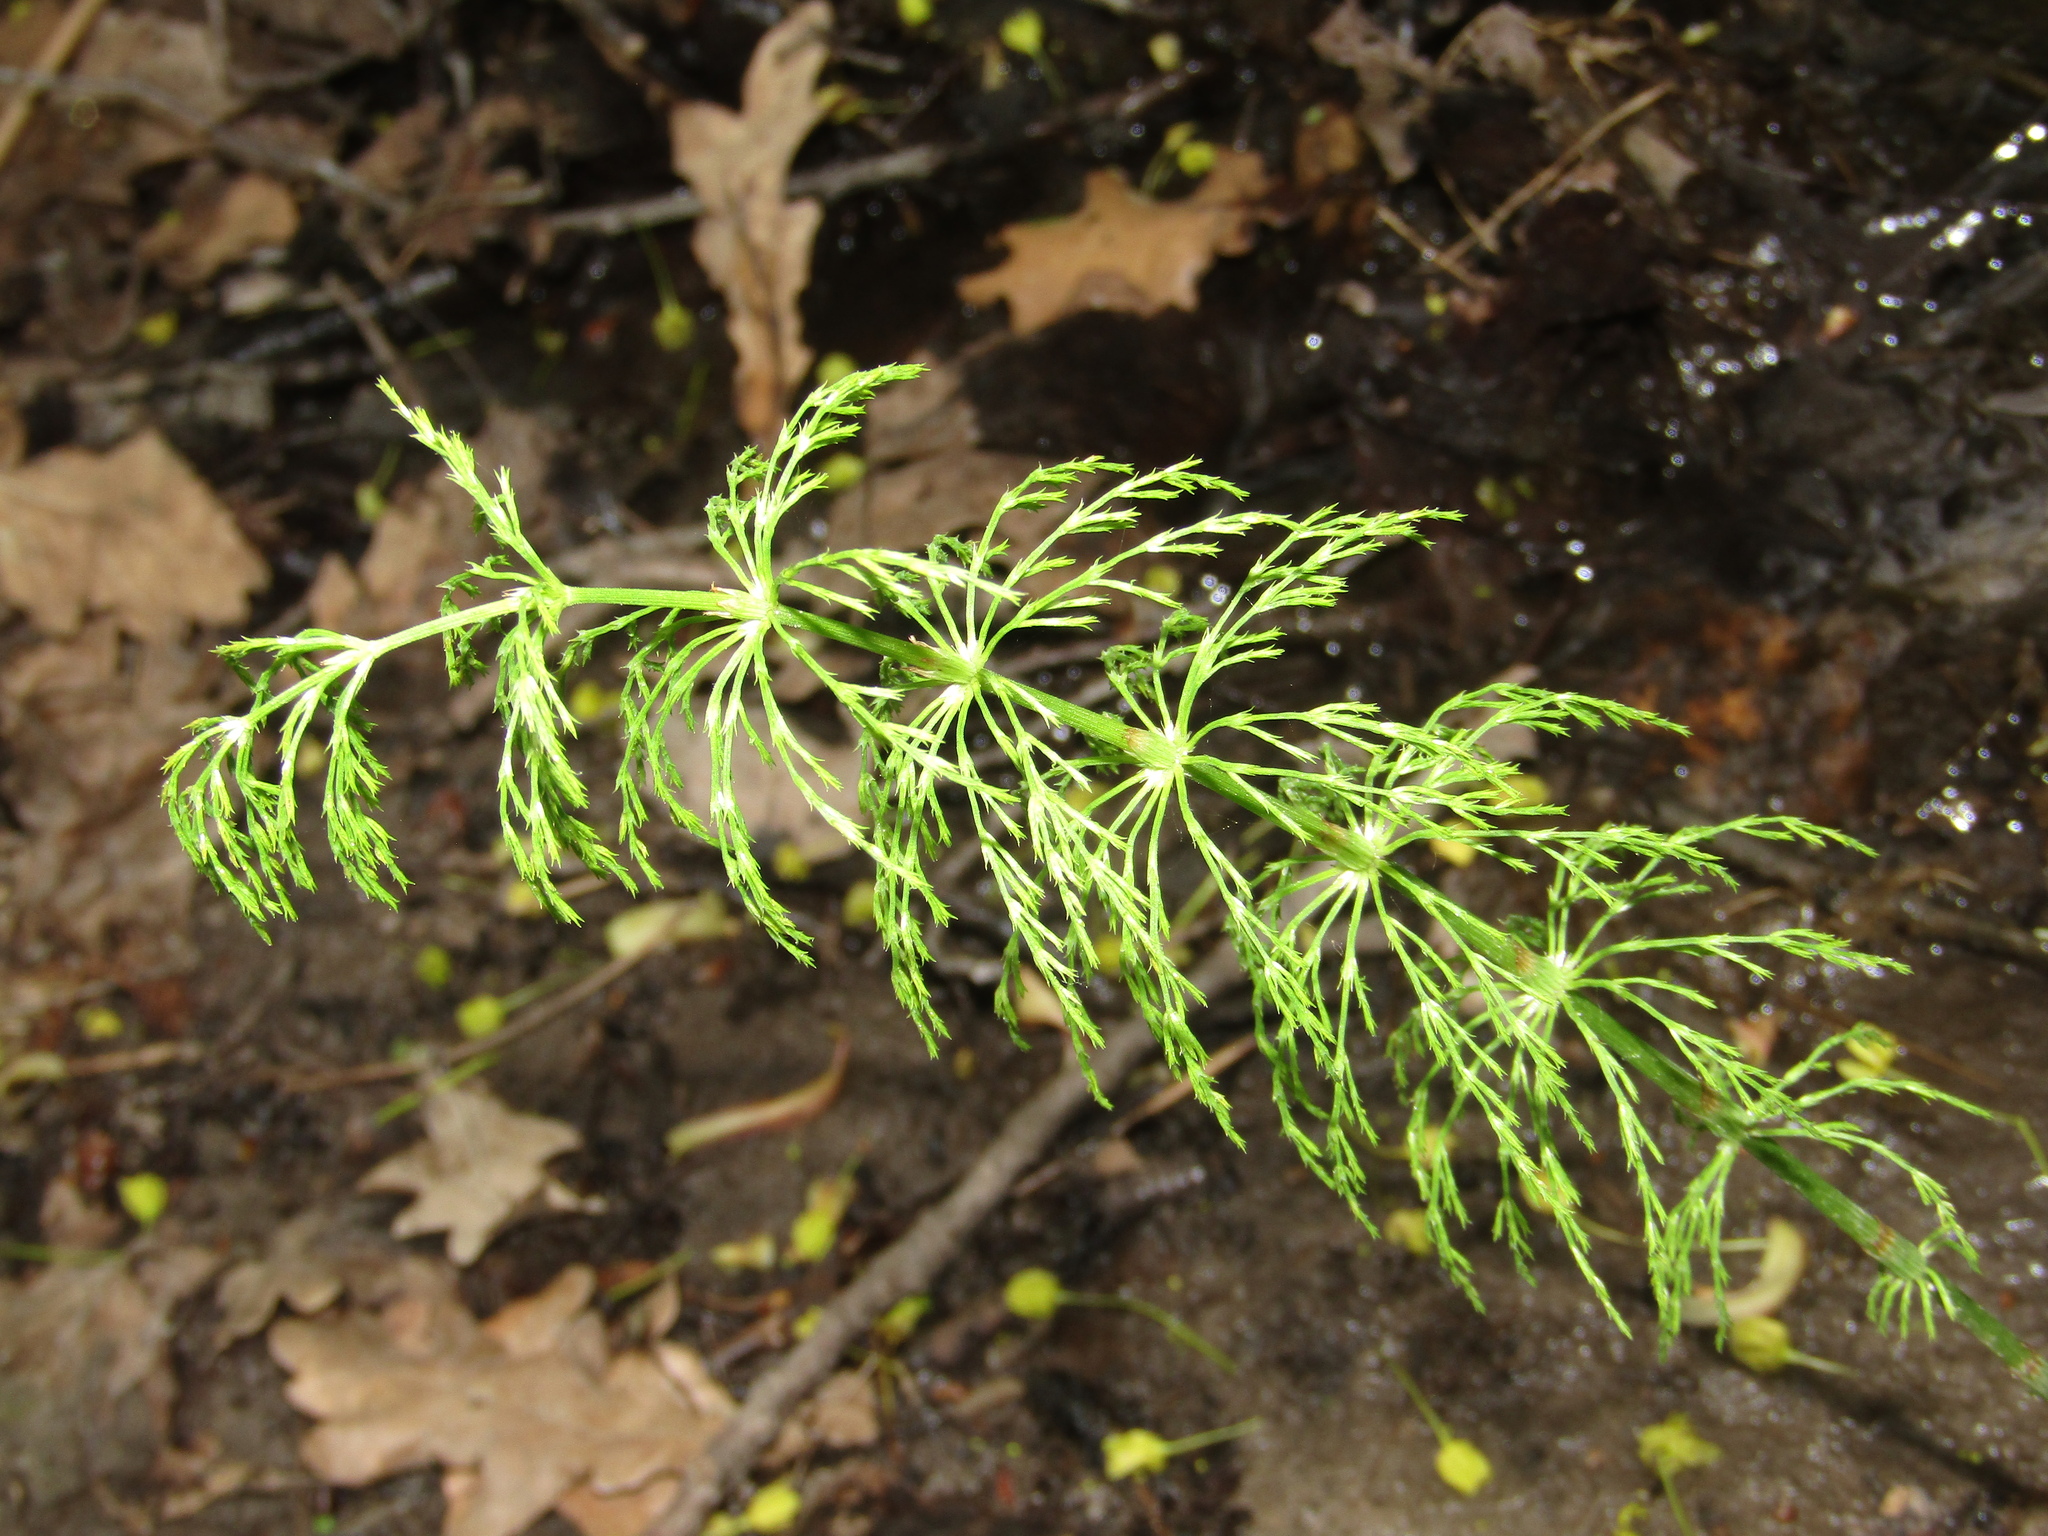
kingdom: Plantae
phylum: Tracheophyta
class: Polypodiopsida
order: Equisetales
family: Equisetaceae
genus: Equisetum
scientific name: Equisetum sylvaticum
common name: Wood horsetail
